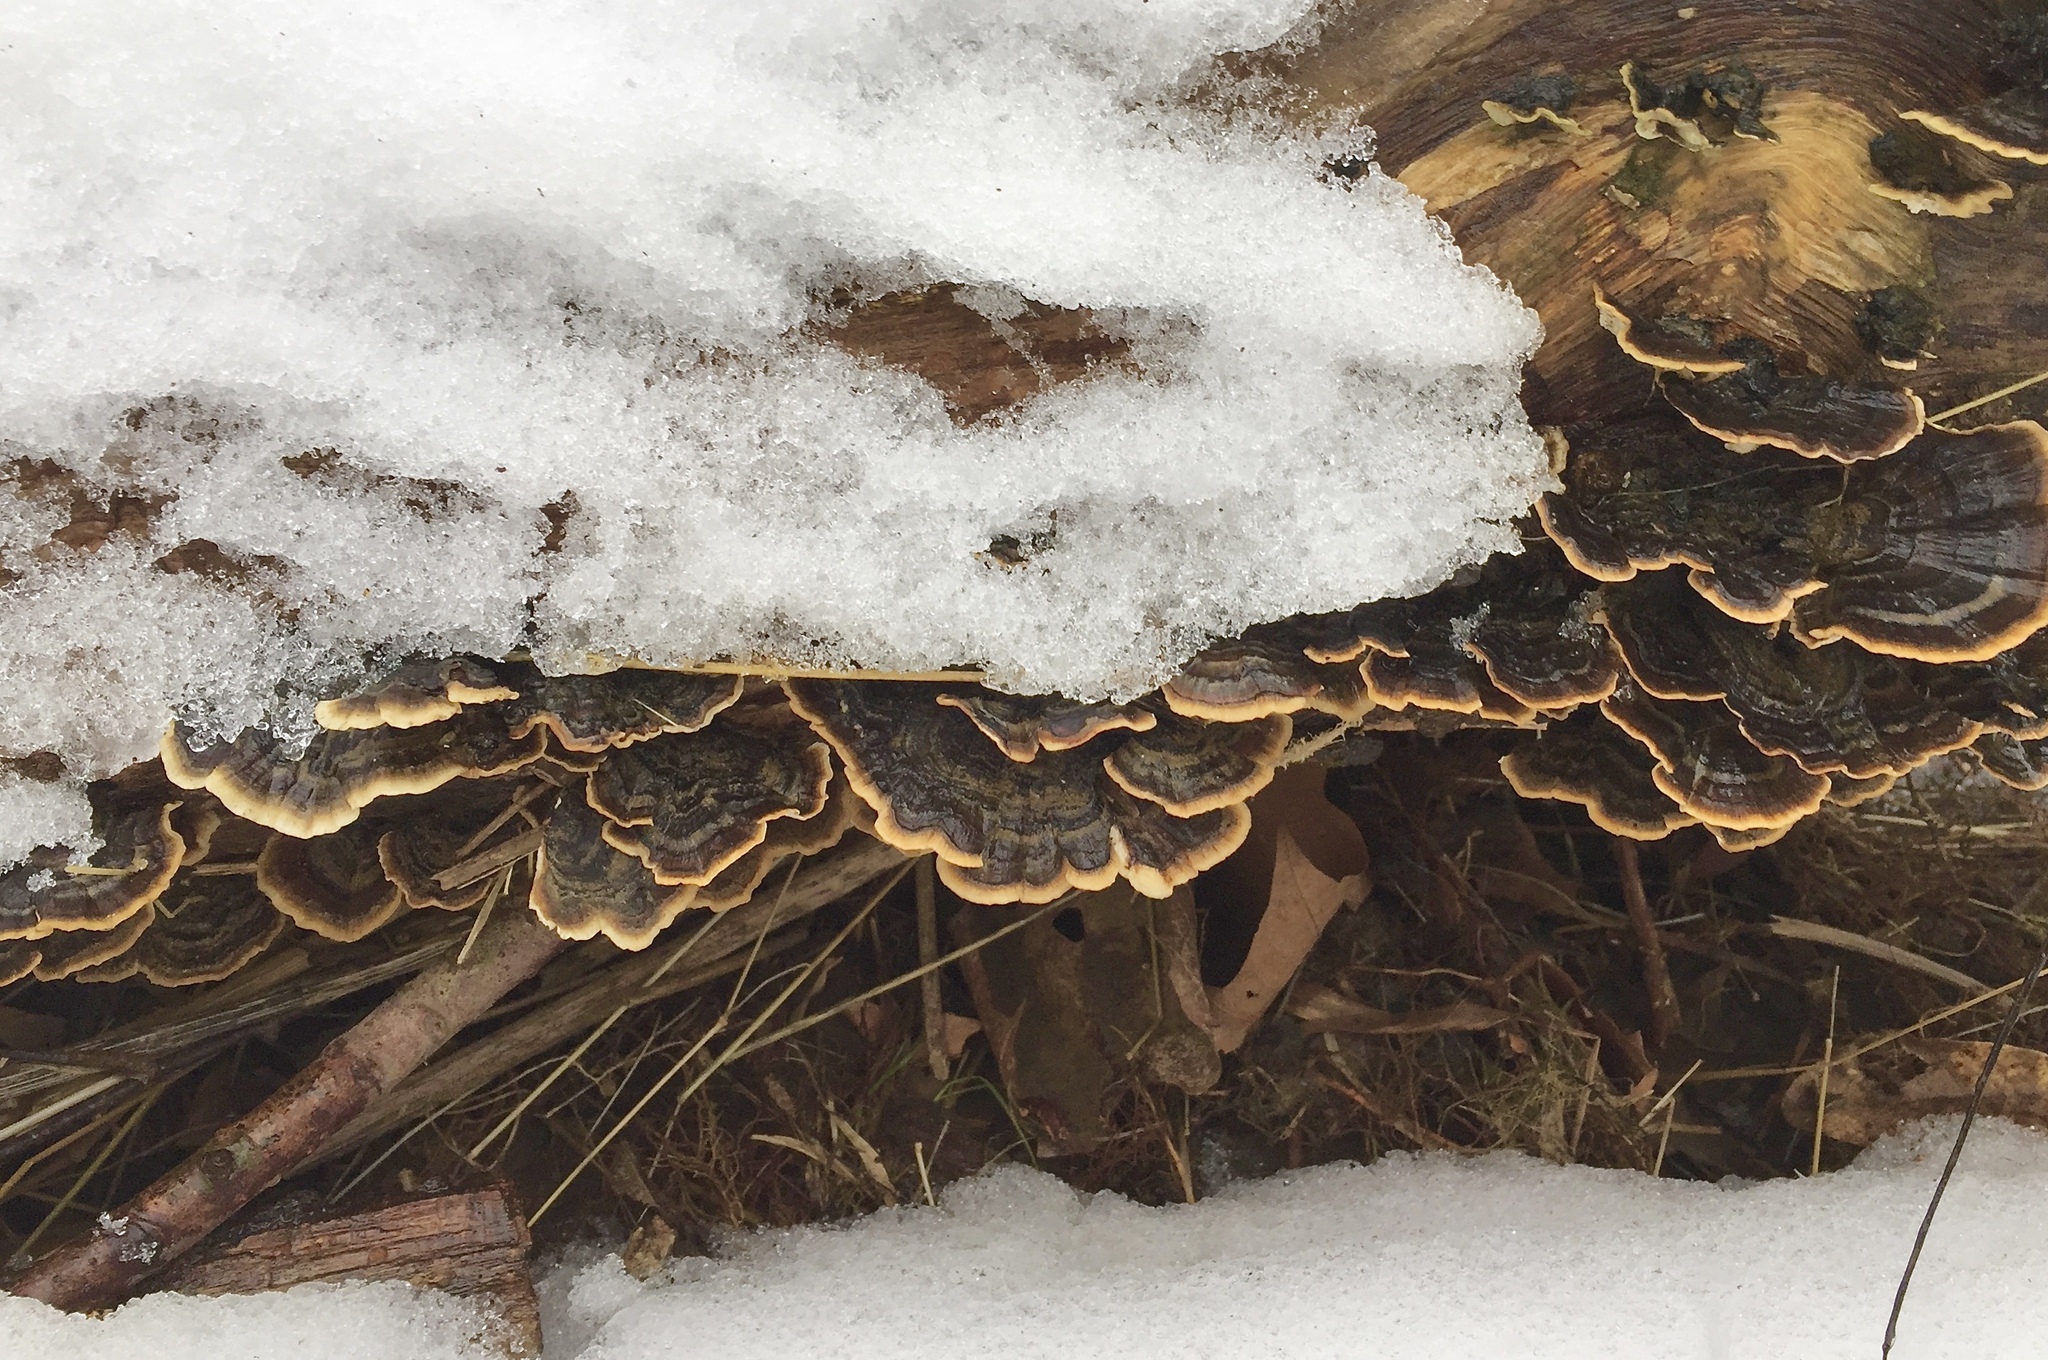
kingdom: Fungi
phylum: Basidiomycota
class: Agaricomycetes
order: Polyporales
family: Polyporaceae
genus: Trametes
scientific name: Trametes versicolor
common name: Turkeytail
